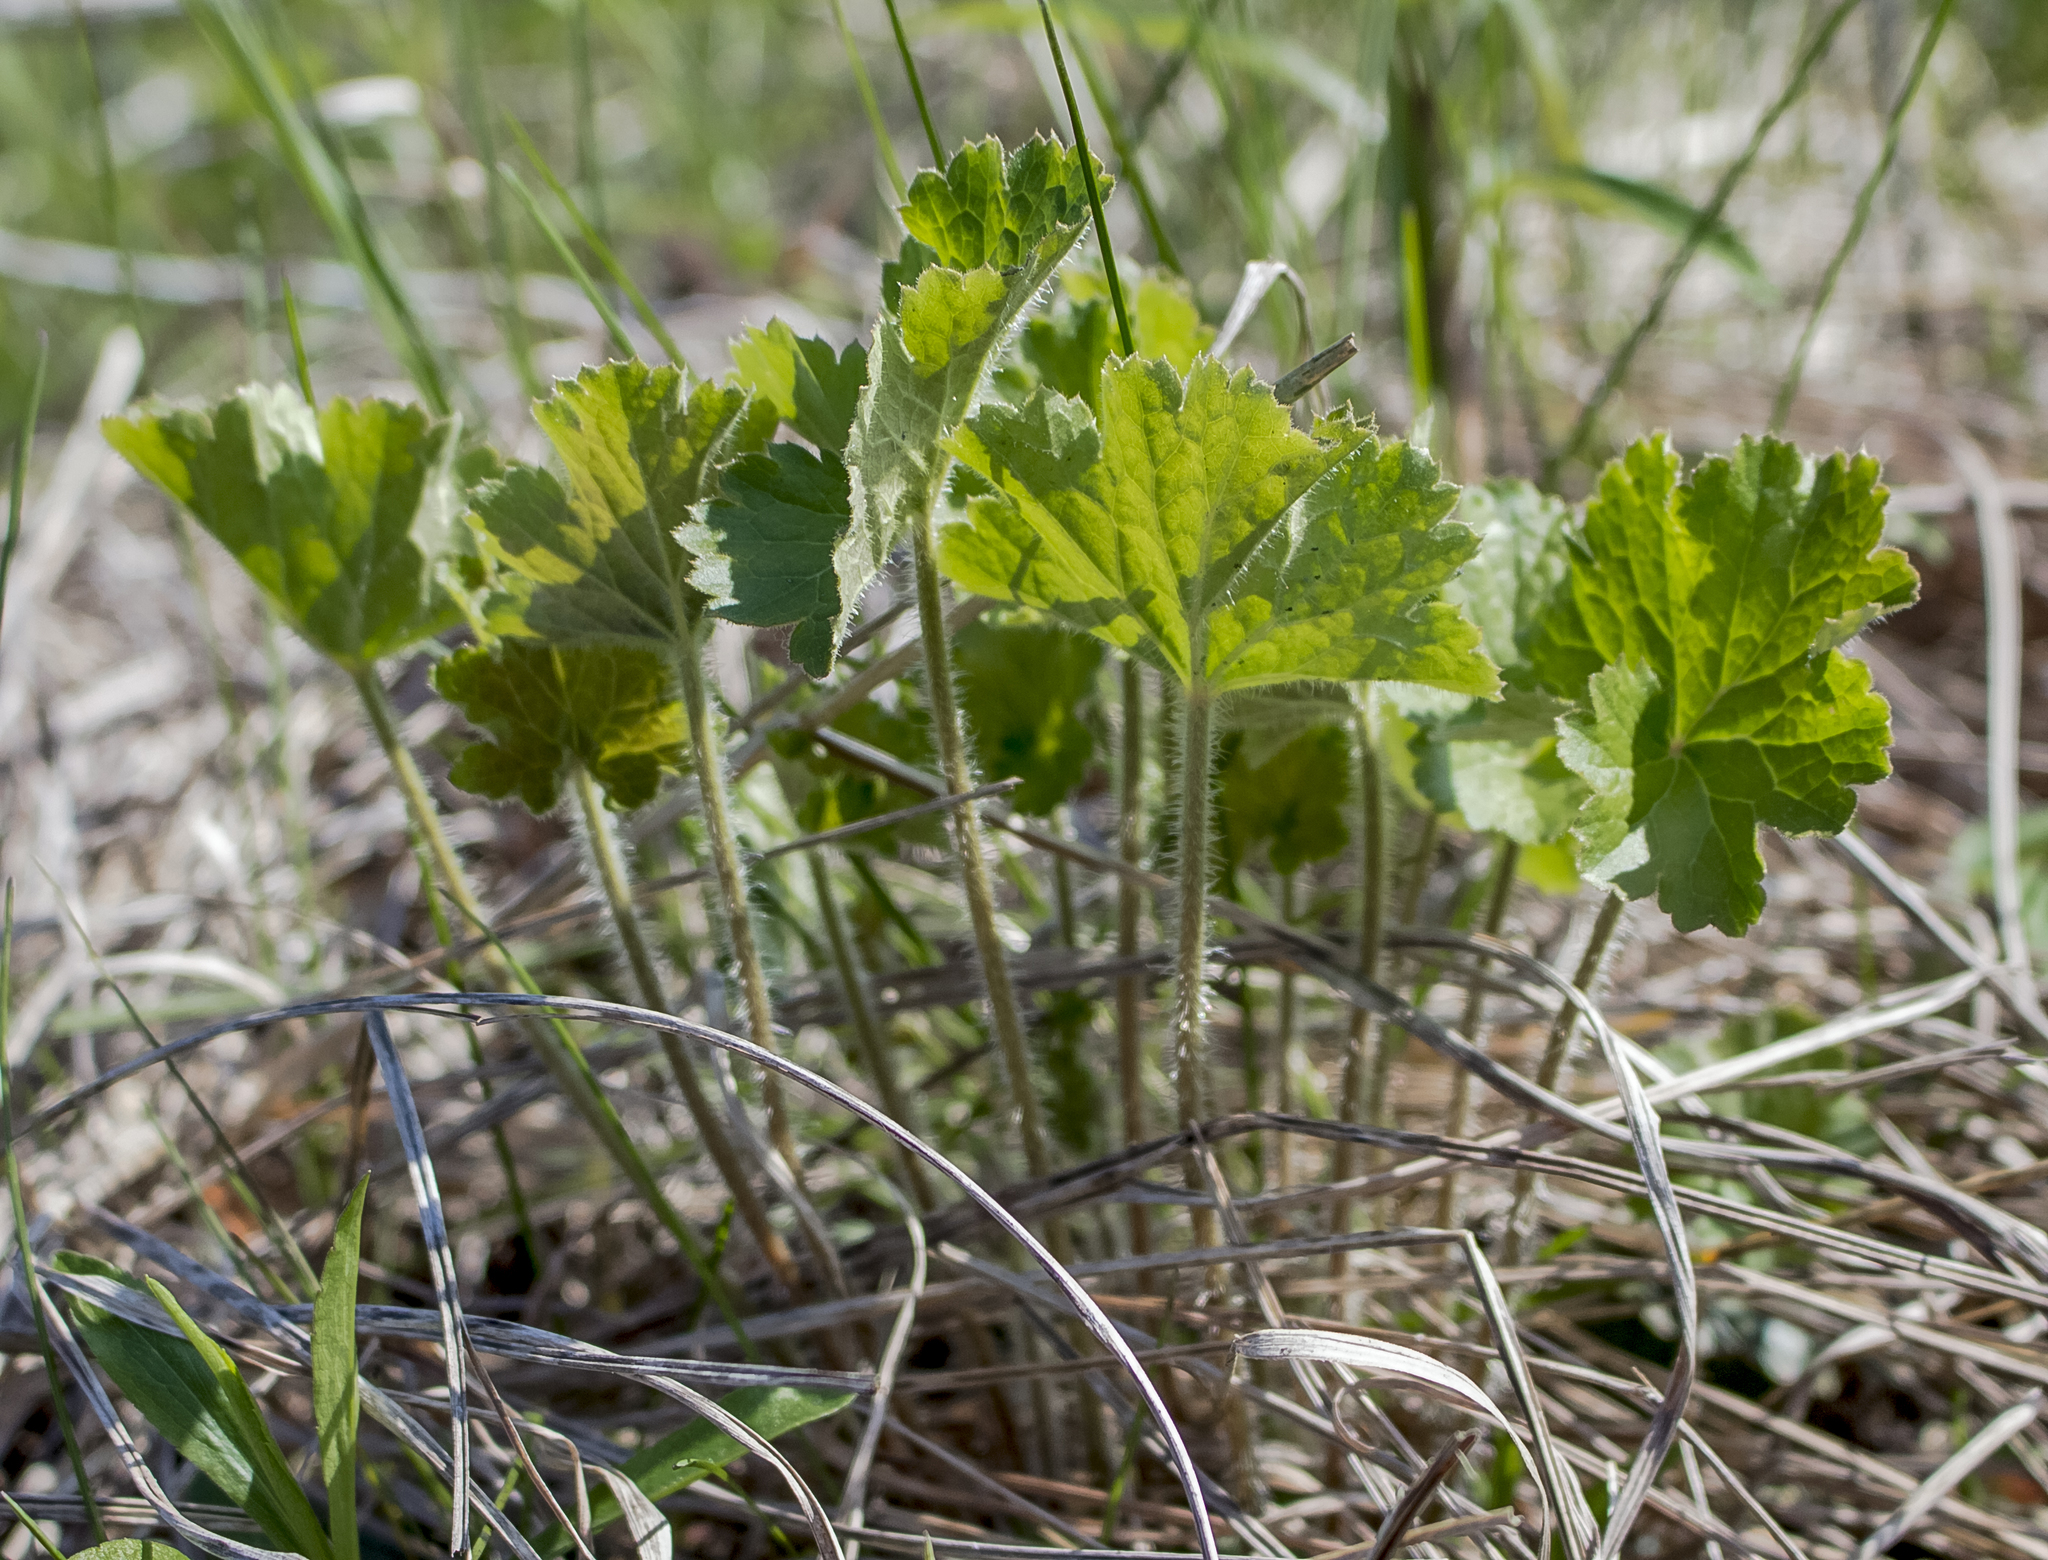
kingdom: Plantae
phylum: Tracheophyta
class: Magnoliopsida
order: Saxifragales
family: Saxifragaceae
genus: Heuchera
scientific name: Heuchera richardsonii
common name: Richardson's alumroot
